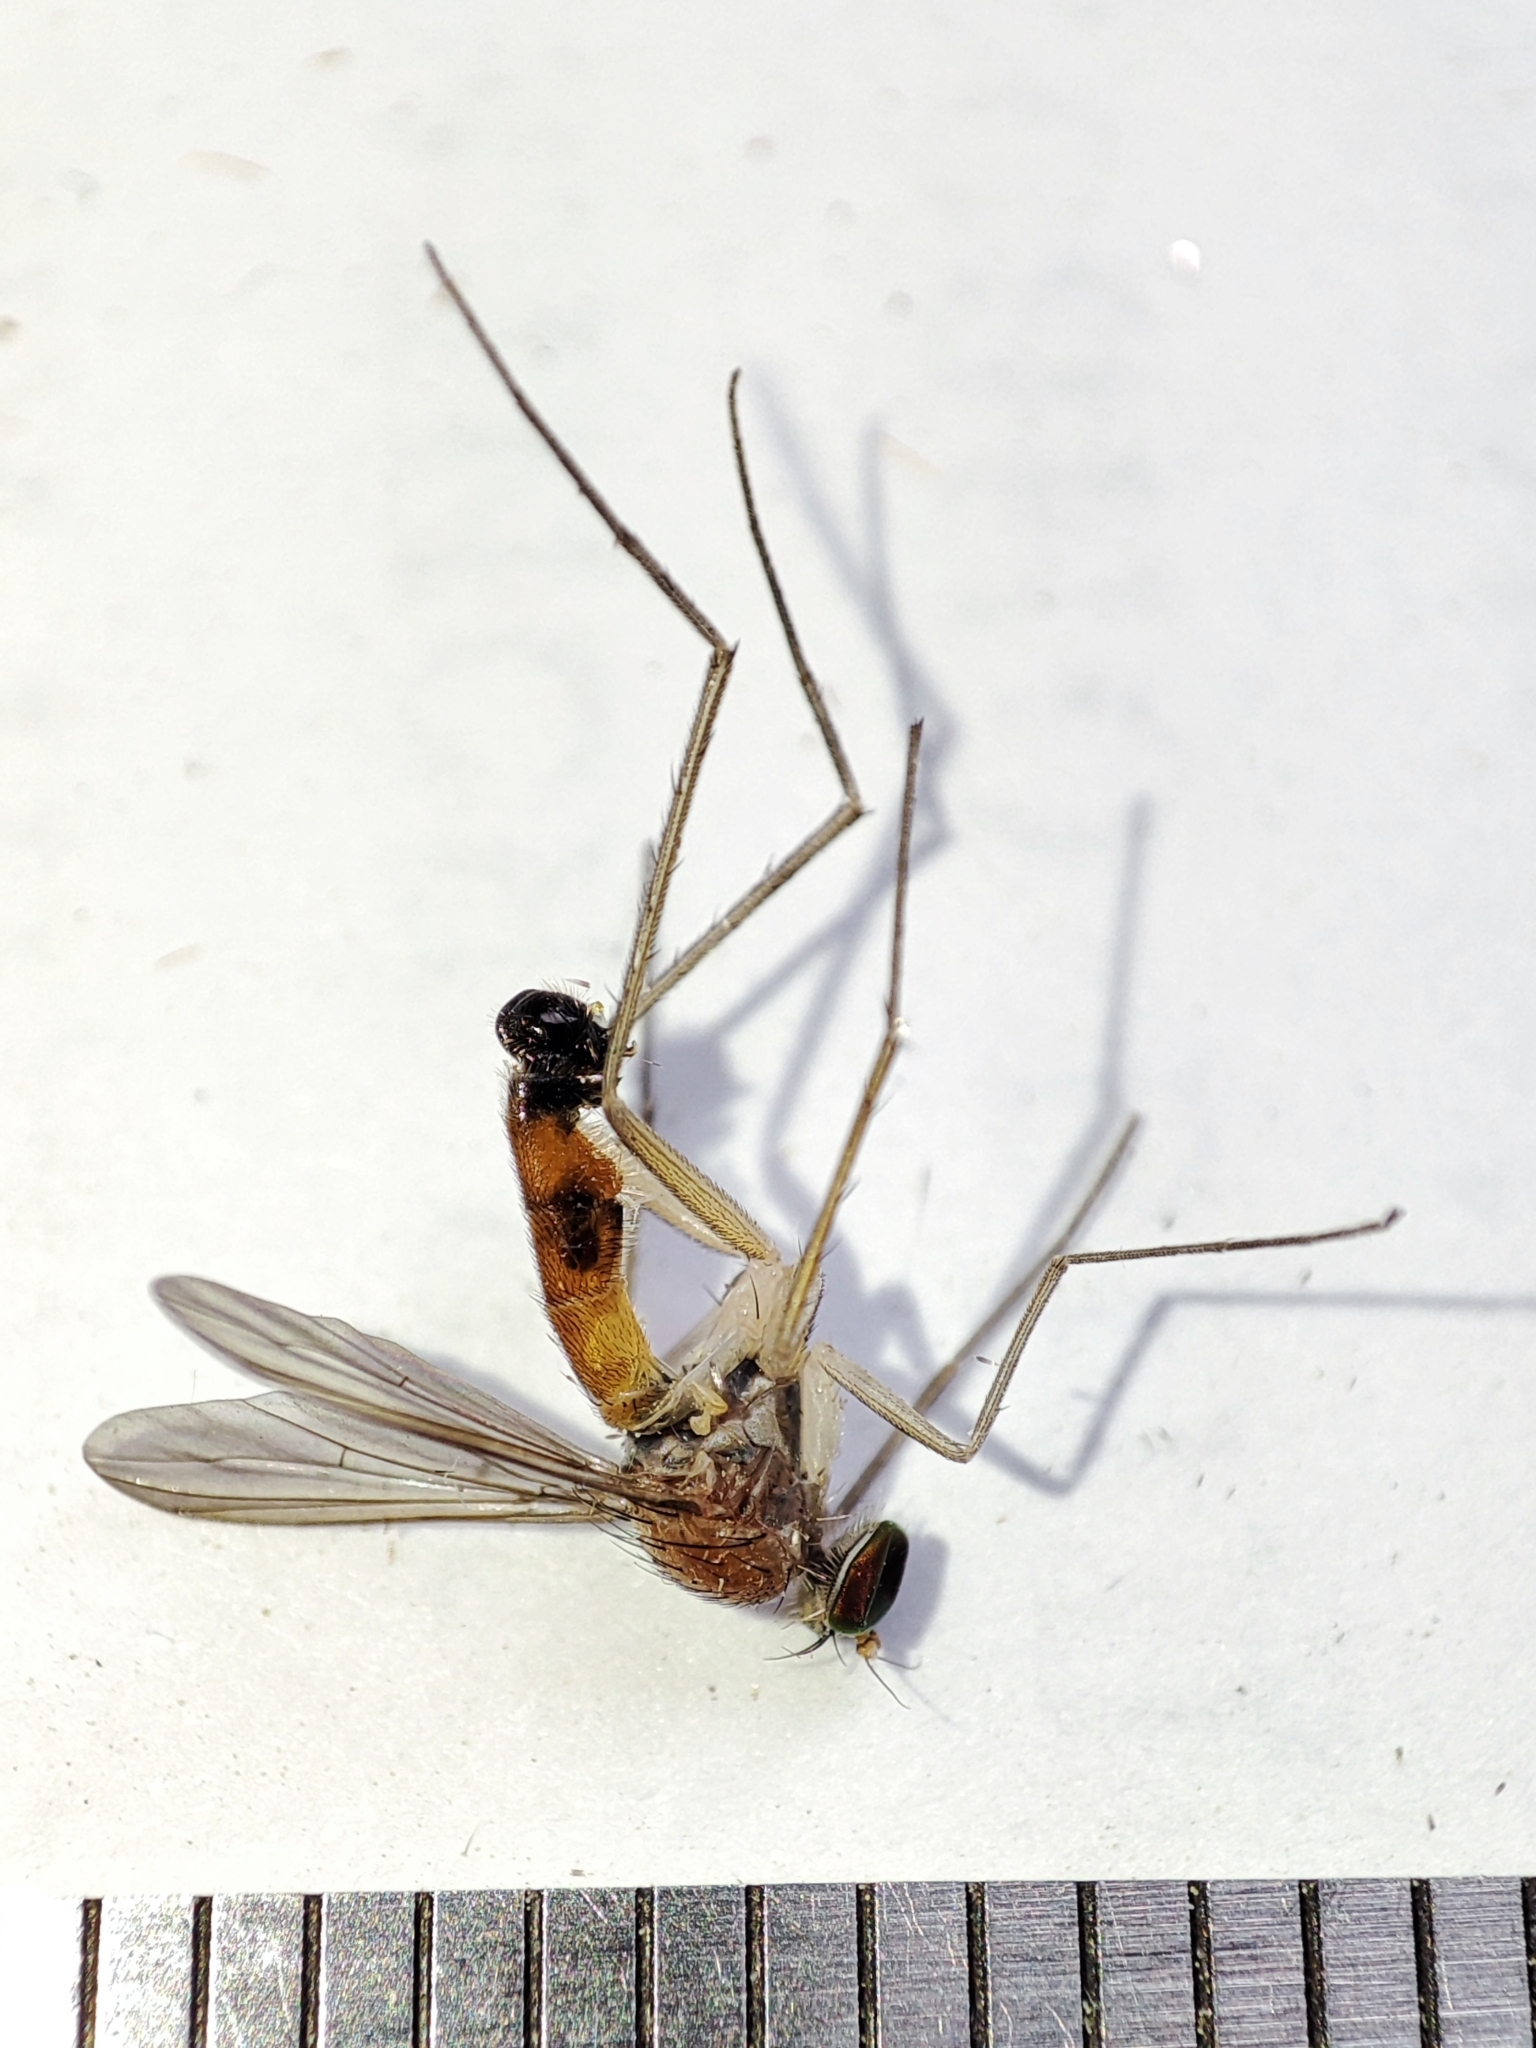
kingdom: Animalia
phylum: Arthropoda
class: Insecta
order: Diptera
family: Dolichopodidae
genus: Neurigona
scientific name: Neurigona pallida
